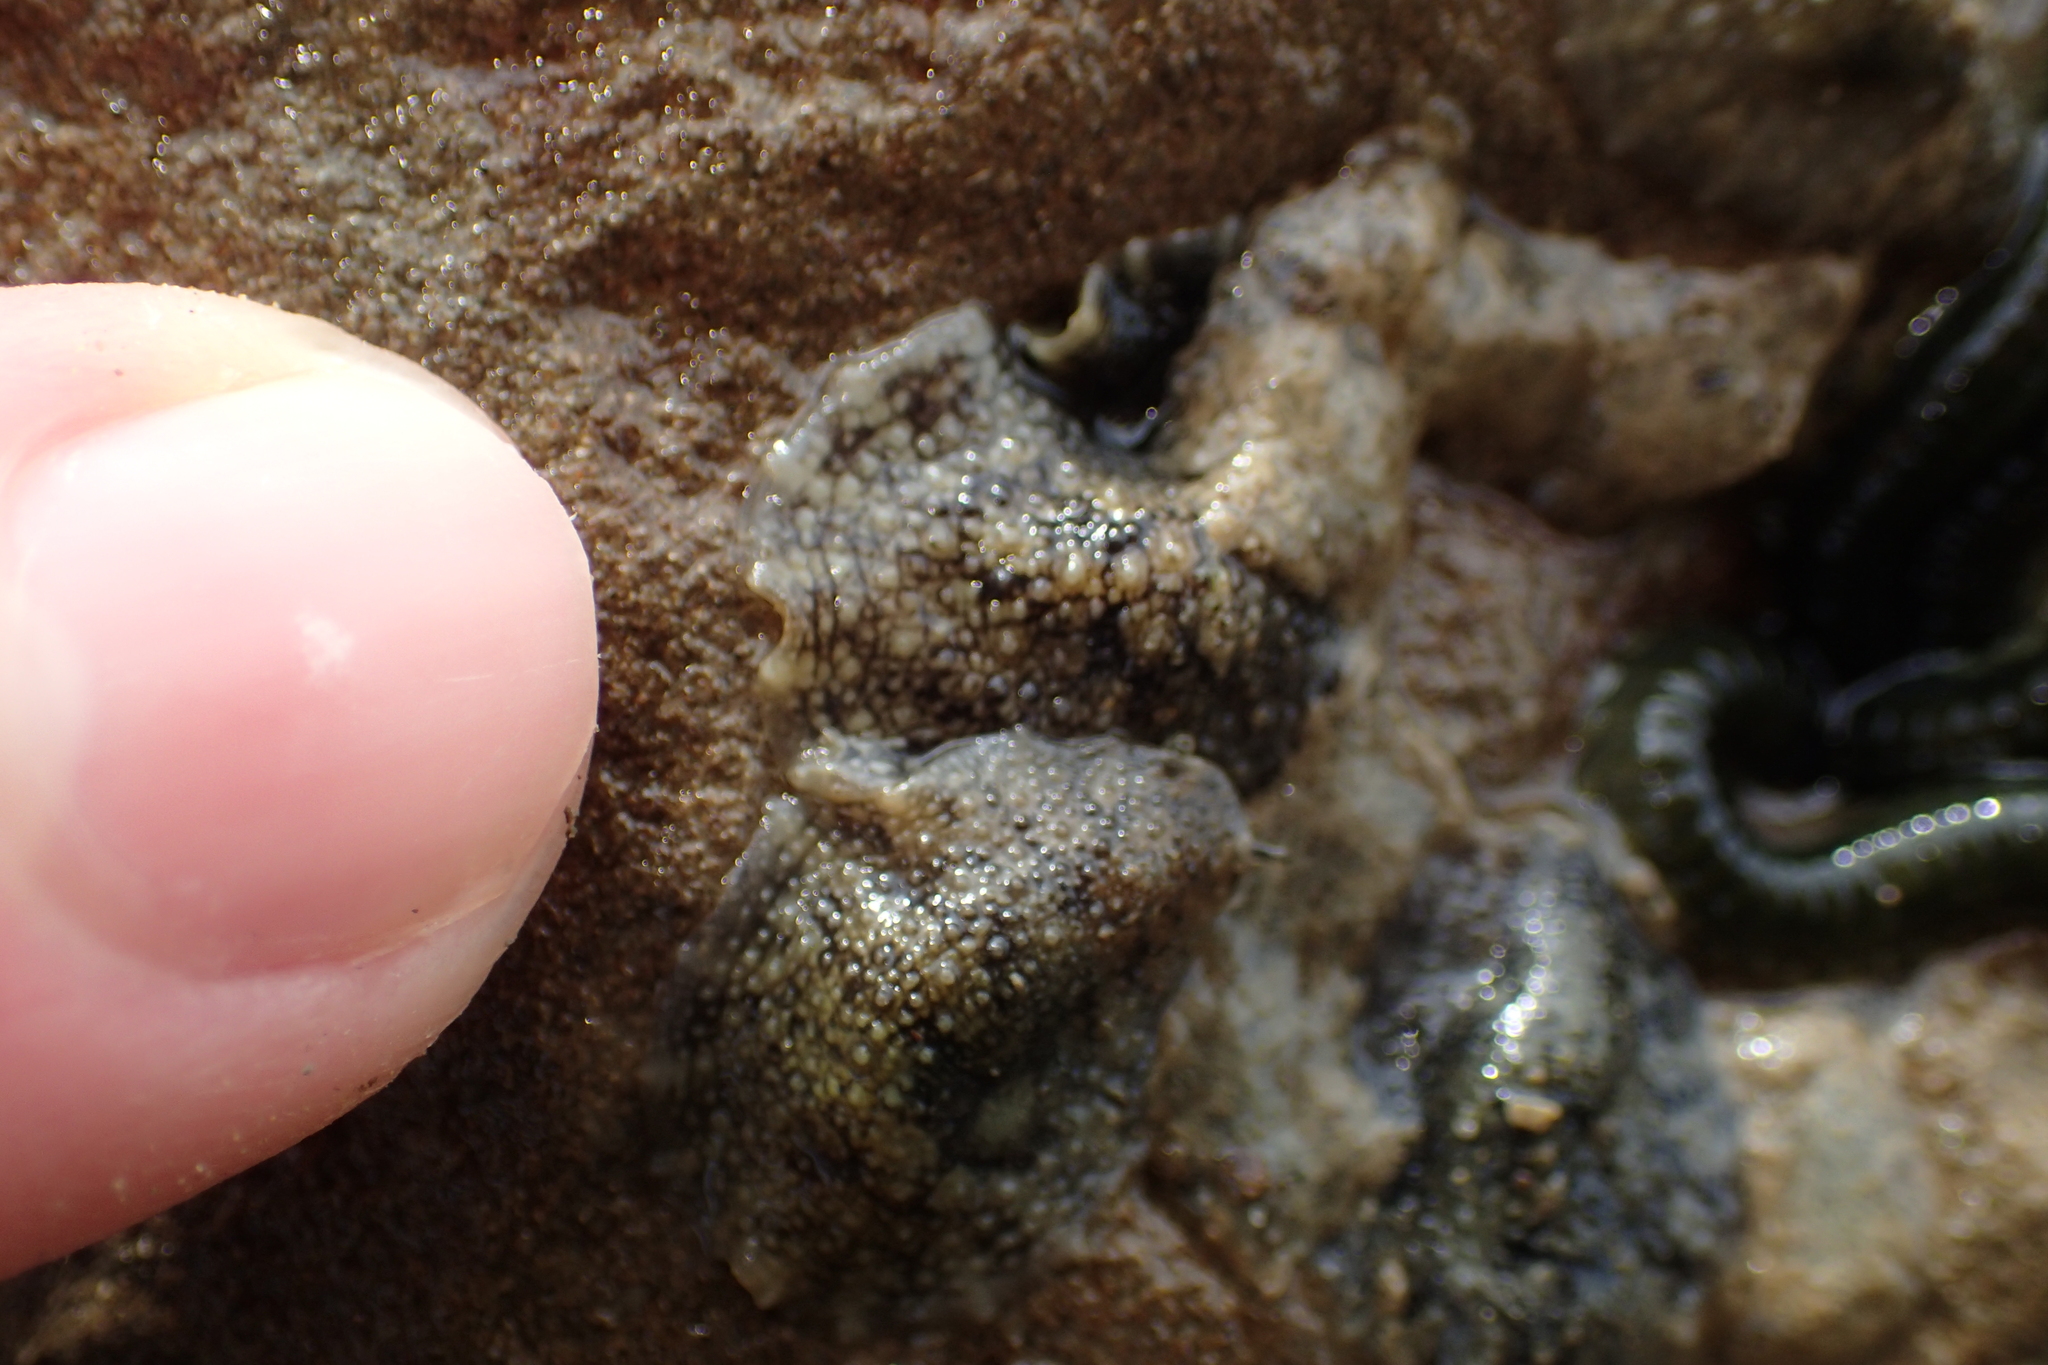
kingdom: Animalia
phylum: Mollusca
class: Gastropoda
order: Systellommatophora
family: Onchidiidae
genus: Onchidella
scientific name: Onchidella nigricans
